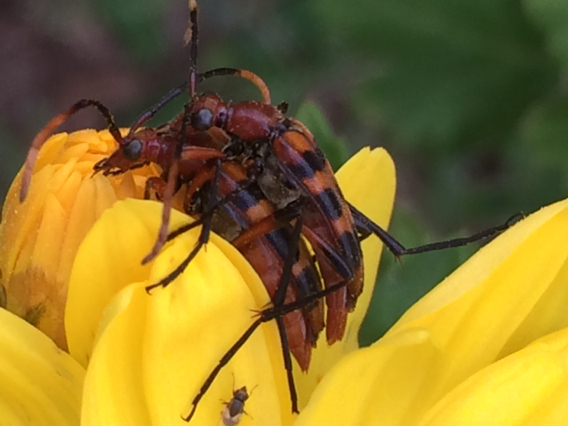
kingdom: Animalia
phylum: Arthropoda
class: Insecta
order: Coleoptera
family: Cerambycidae
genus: Strangalia
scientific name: Strangalia sexnotata
